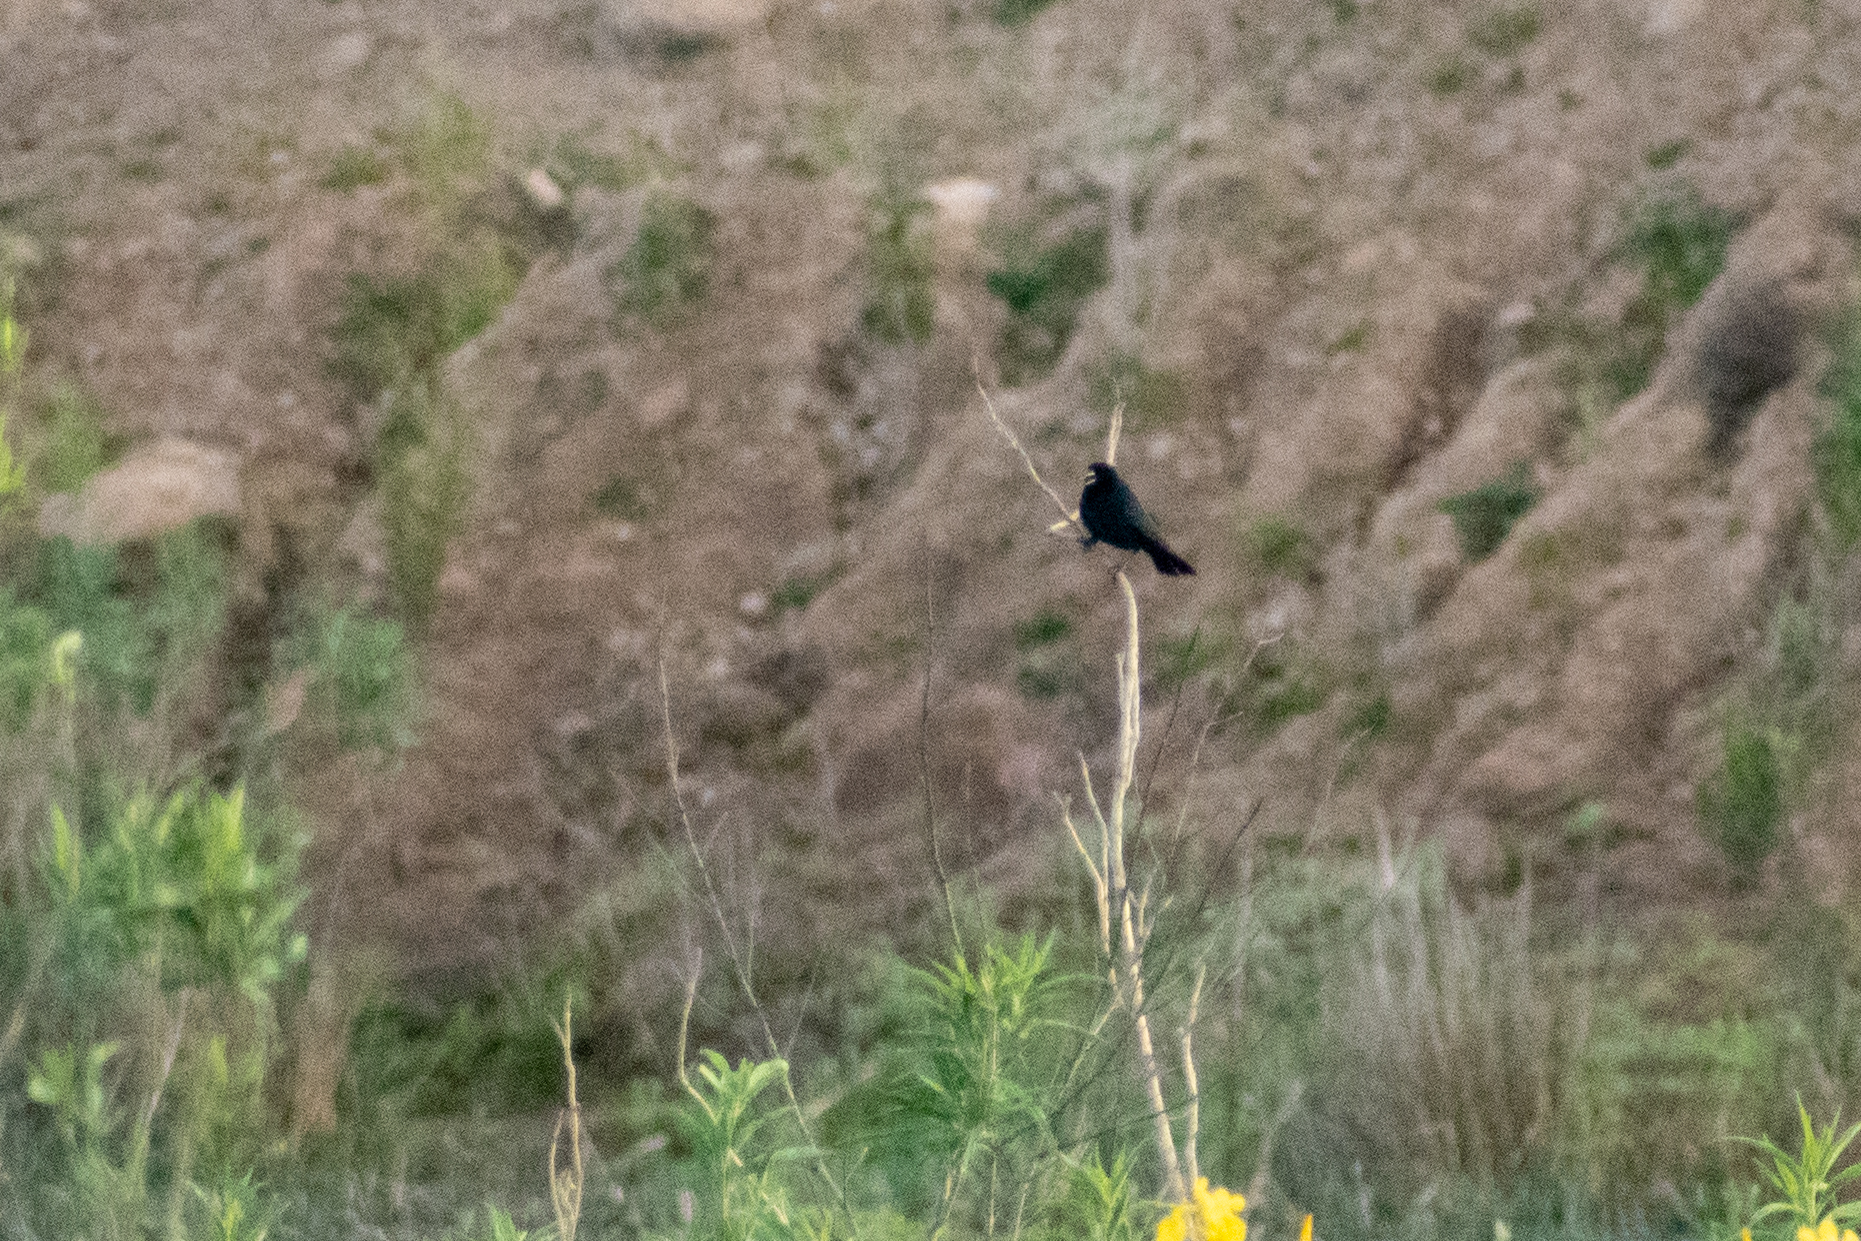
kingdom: Animalia
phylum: Chordata
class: Aves
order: Passeriformes
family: Icteridae
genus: Chrysomus
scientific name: Chrysomus ruficapillus
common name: Chestnut-capped blackbird
